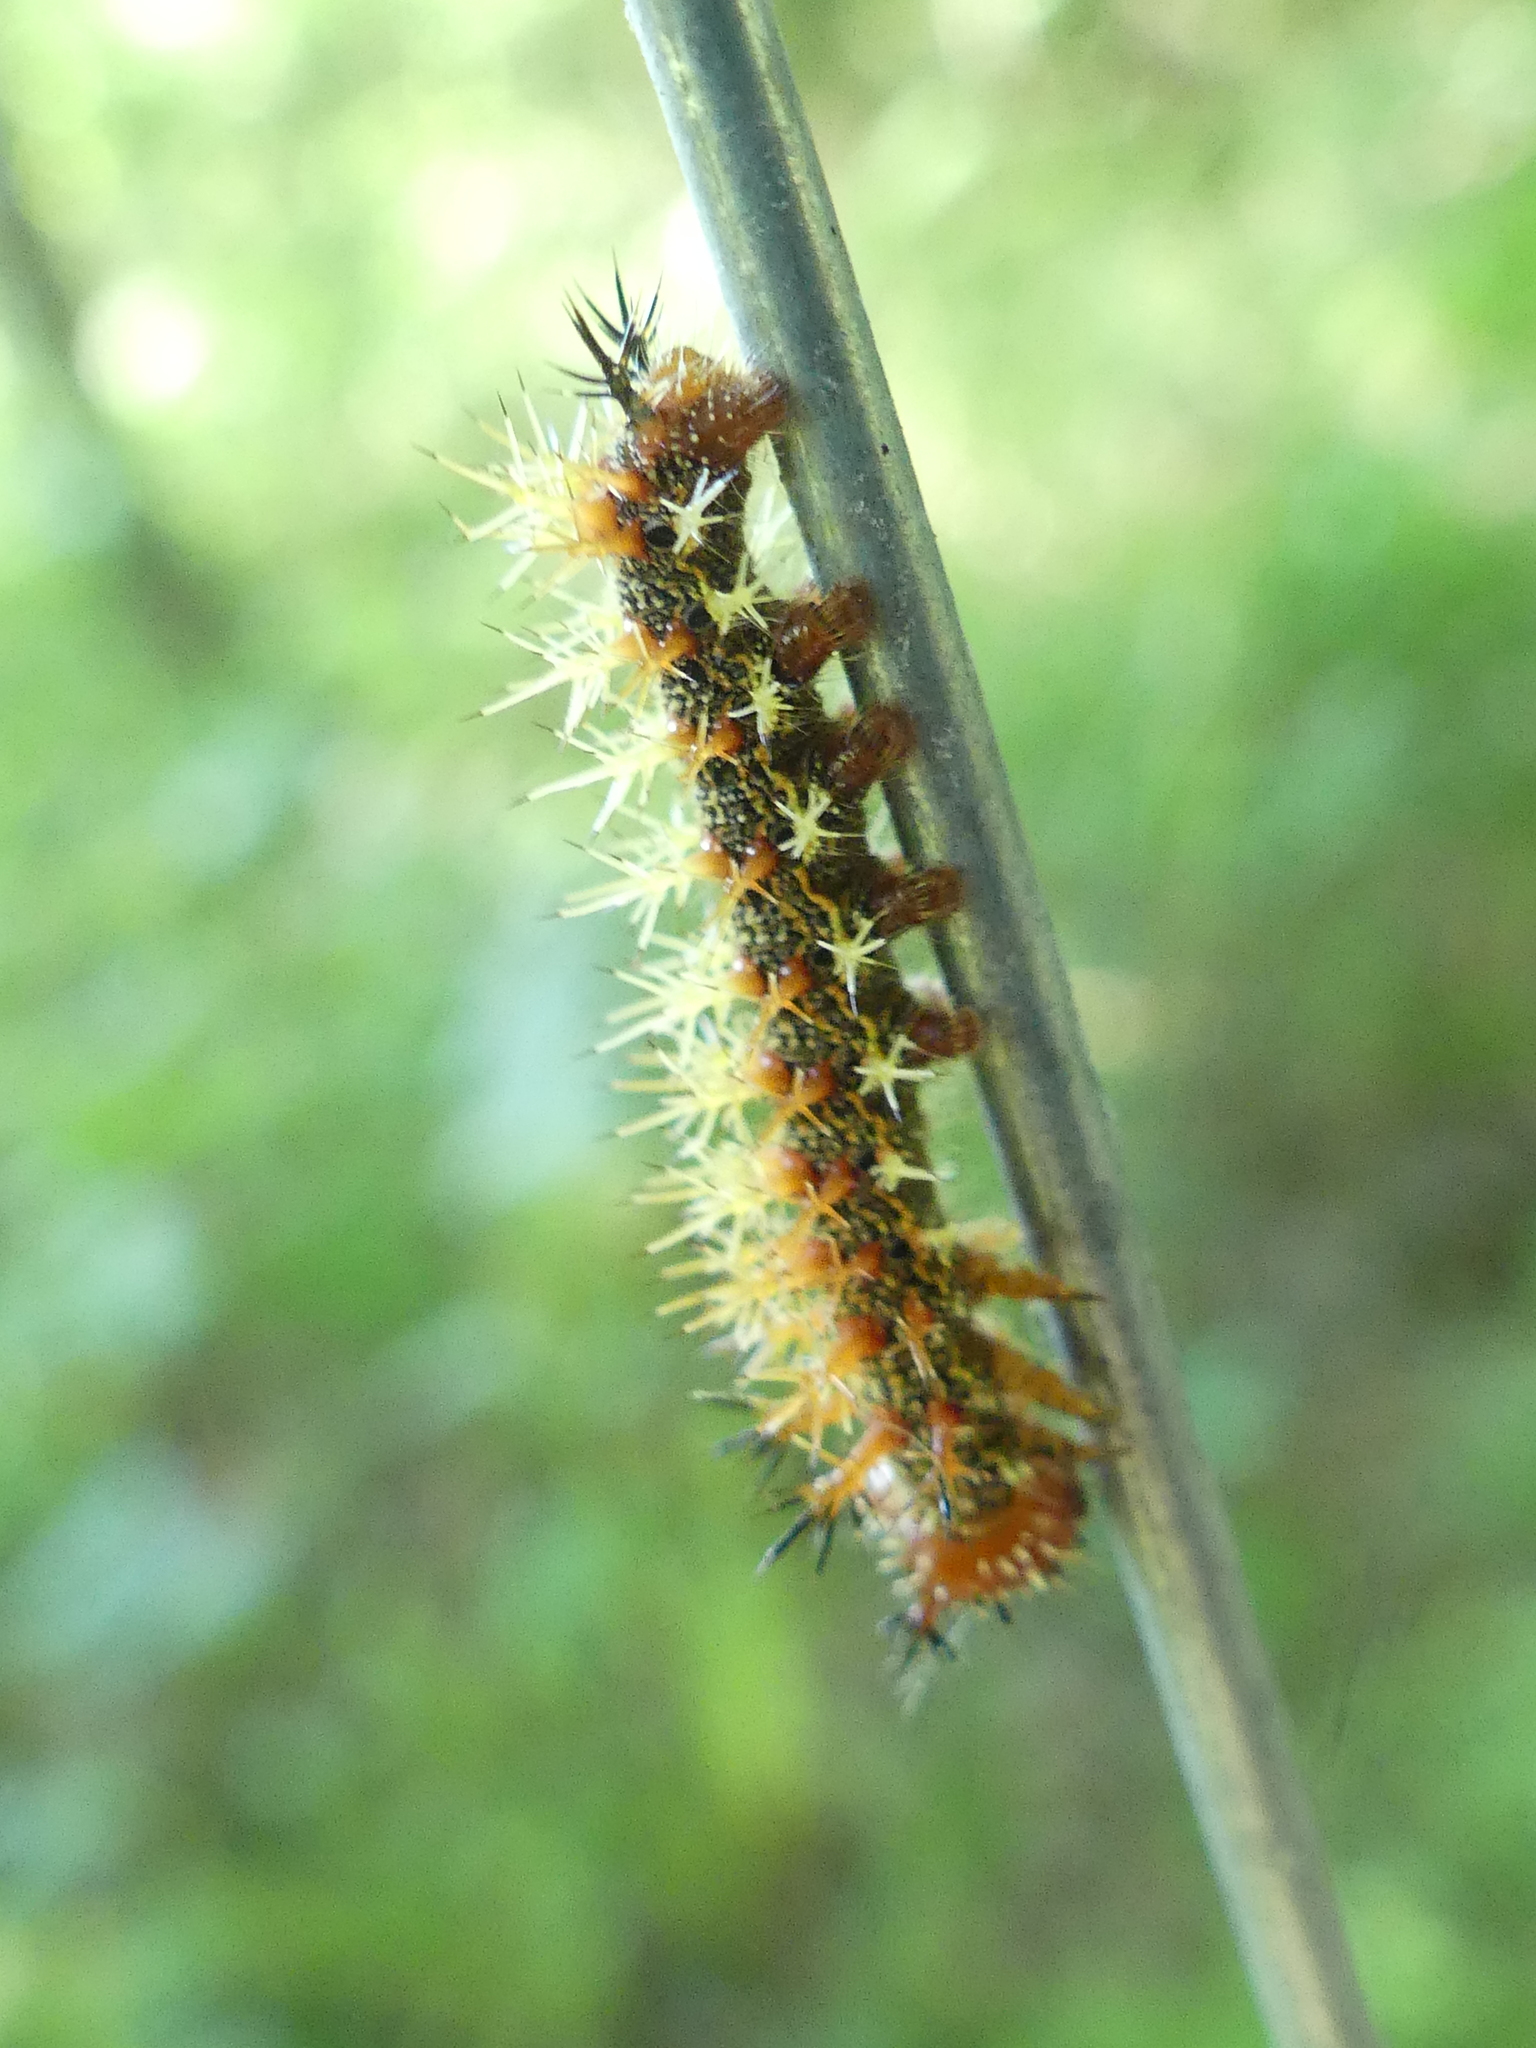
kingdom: Animalia
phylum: Arthropoda
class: Insecta
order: Lepidoptera
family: Nymphalidae
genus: Polygonia
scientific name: Polygonia interrogationis
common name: Question mark
